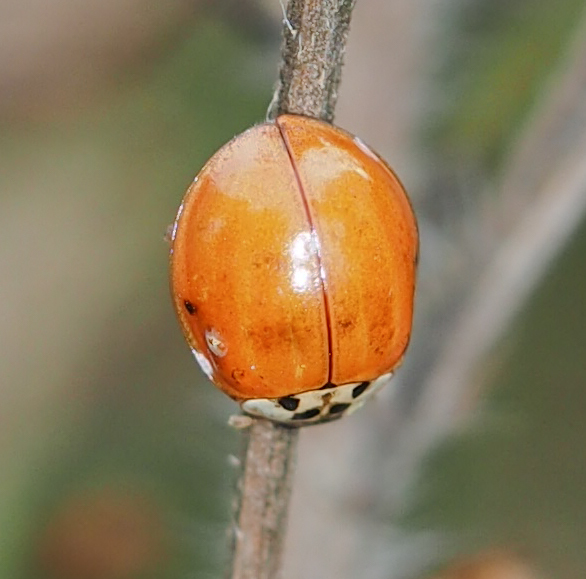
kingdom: Animalia
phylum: Arthropoda
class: Insecta
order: Coleoptera
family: Coccinellidae
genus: Harmonia
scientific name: Harmonia axyridis
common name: Harlequin ladybird
